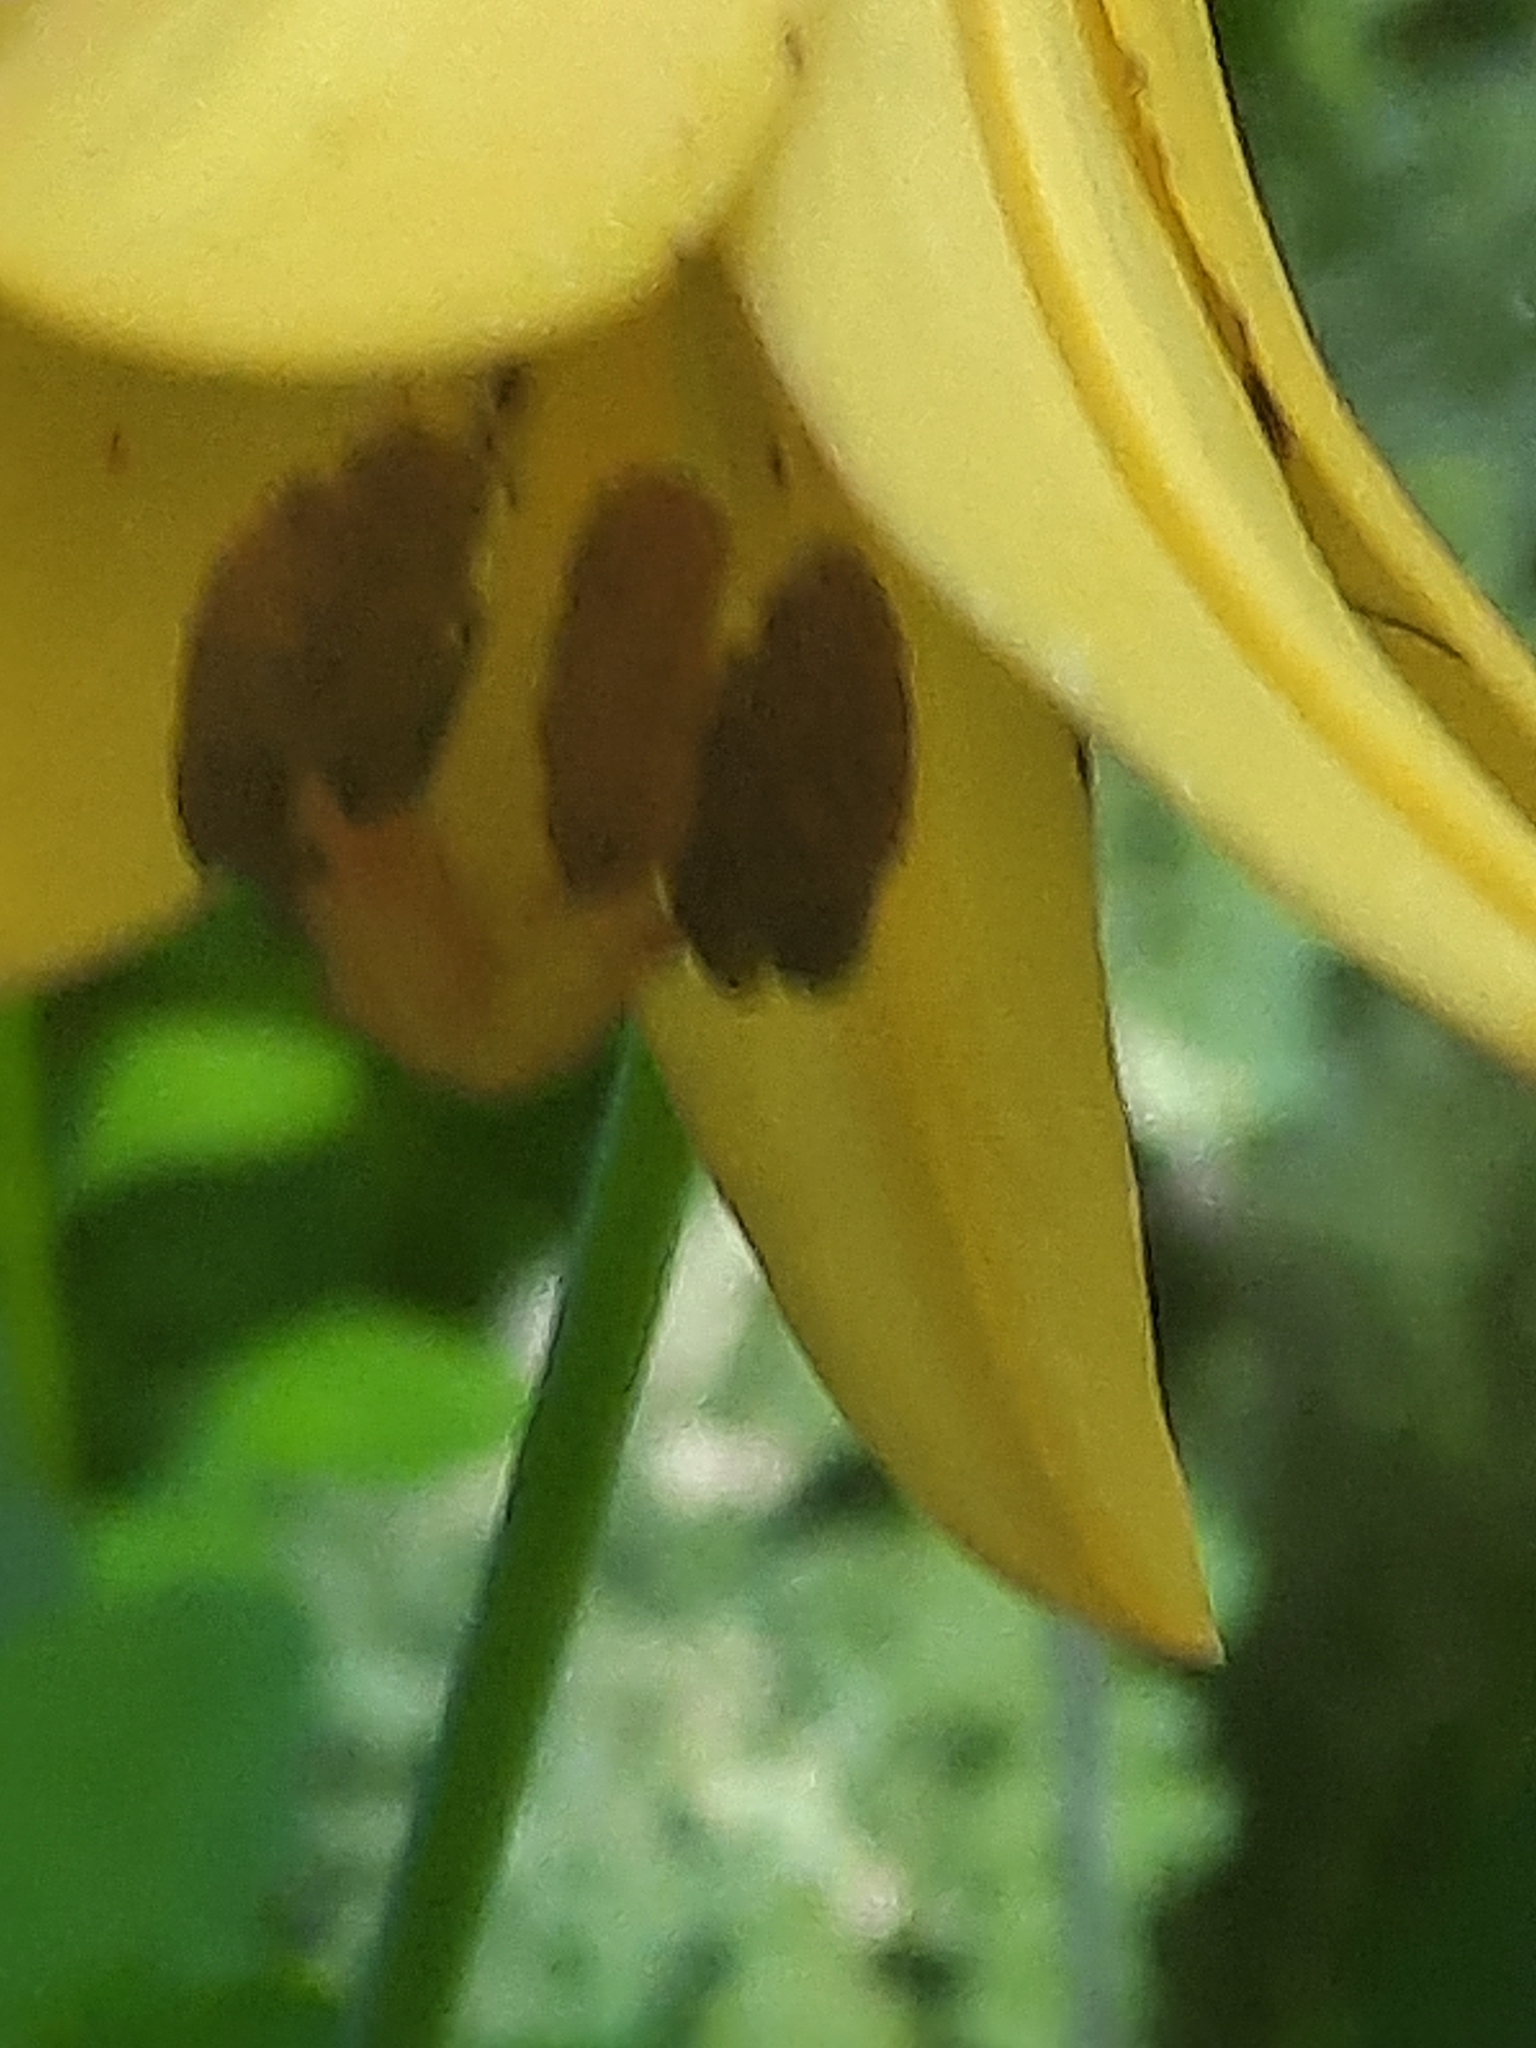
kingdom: Plantae
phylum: Tracheophyta
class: Liliopsida
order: Liliales
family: Liliaceae
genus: Lilium
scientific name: Lilium canadense
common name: Canada lily
